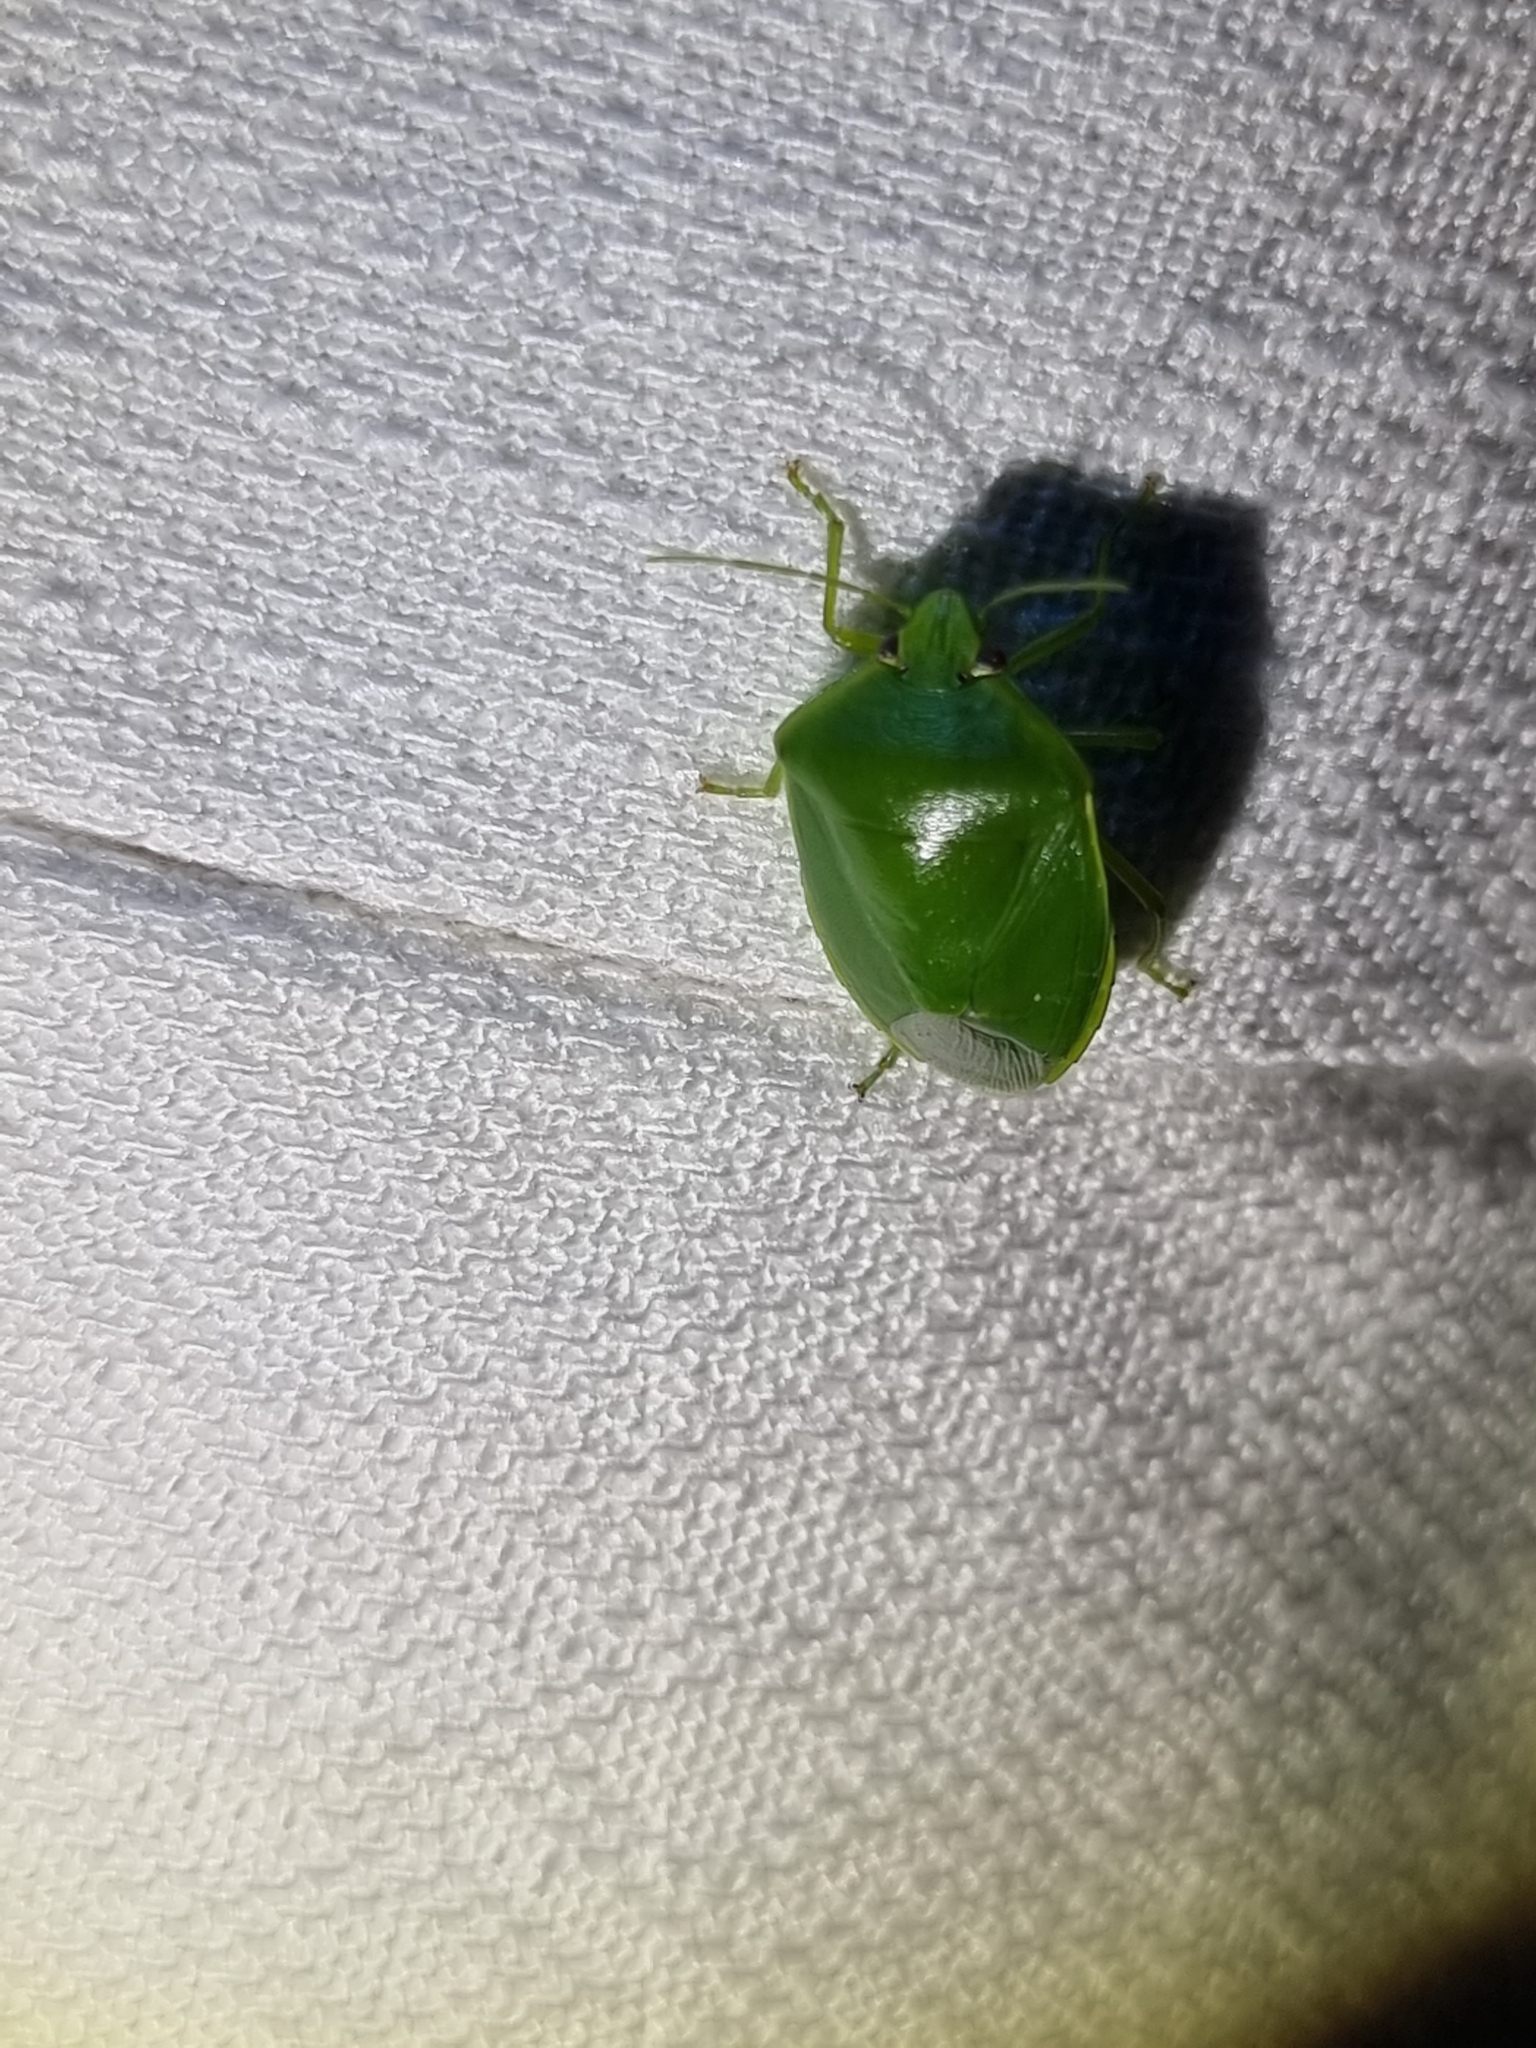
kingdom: Animalia
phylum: Arthropoda
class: Insecta
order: Hemiptera
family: Pentatomidae
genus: Glaucias
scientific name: Glaucias
